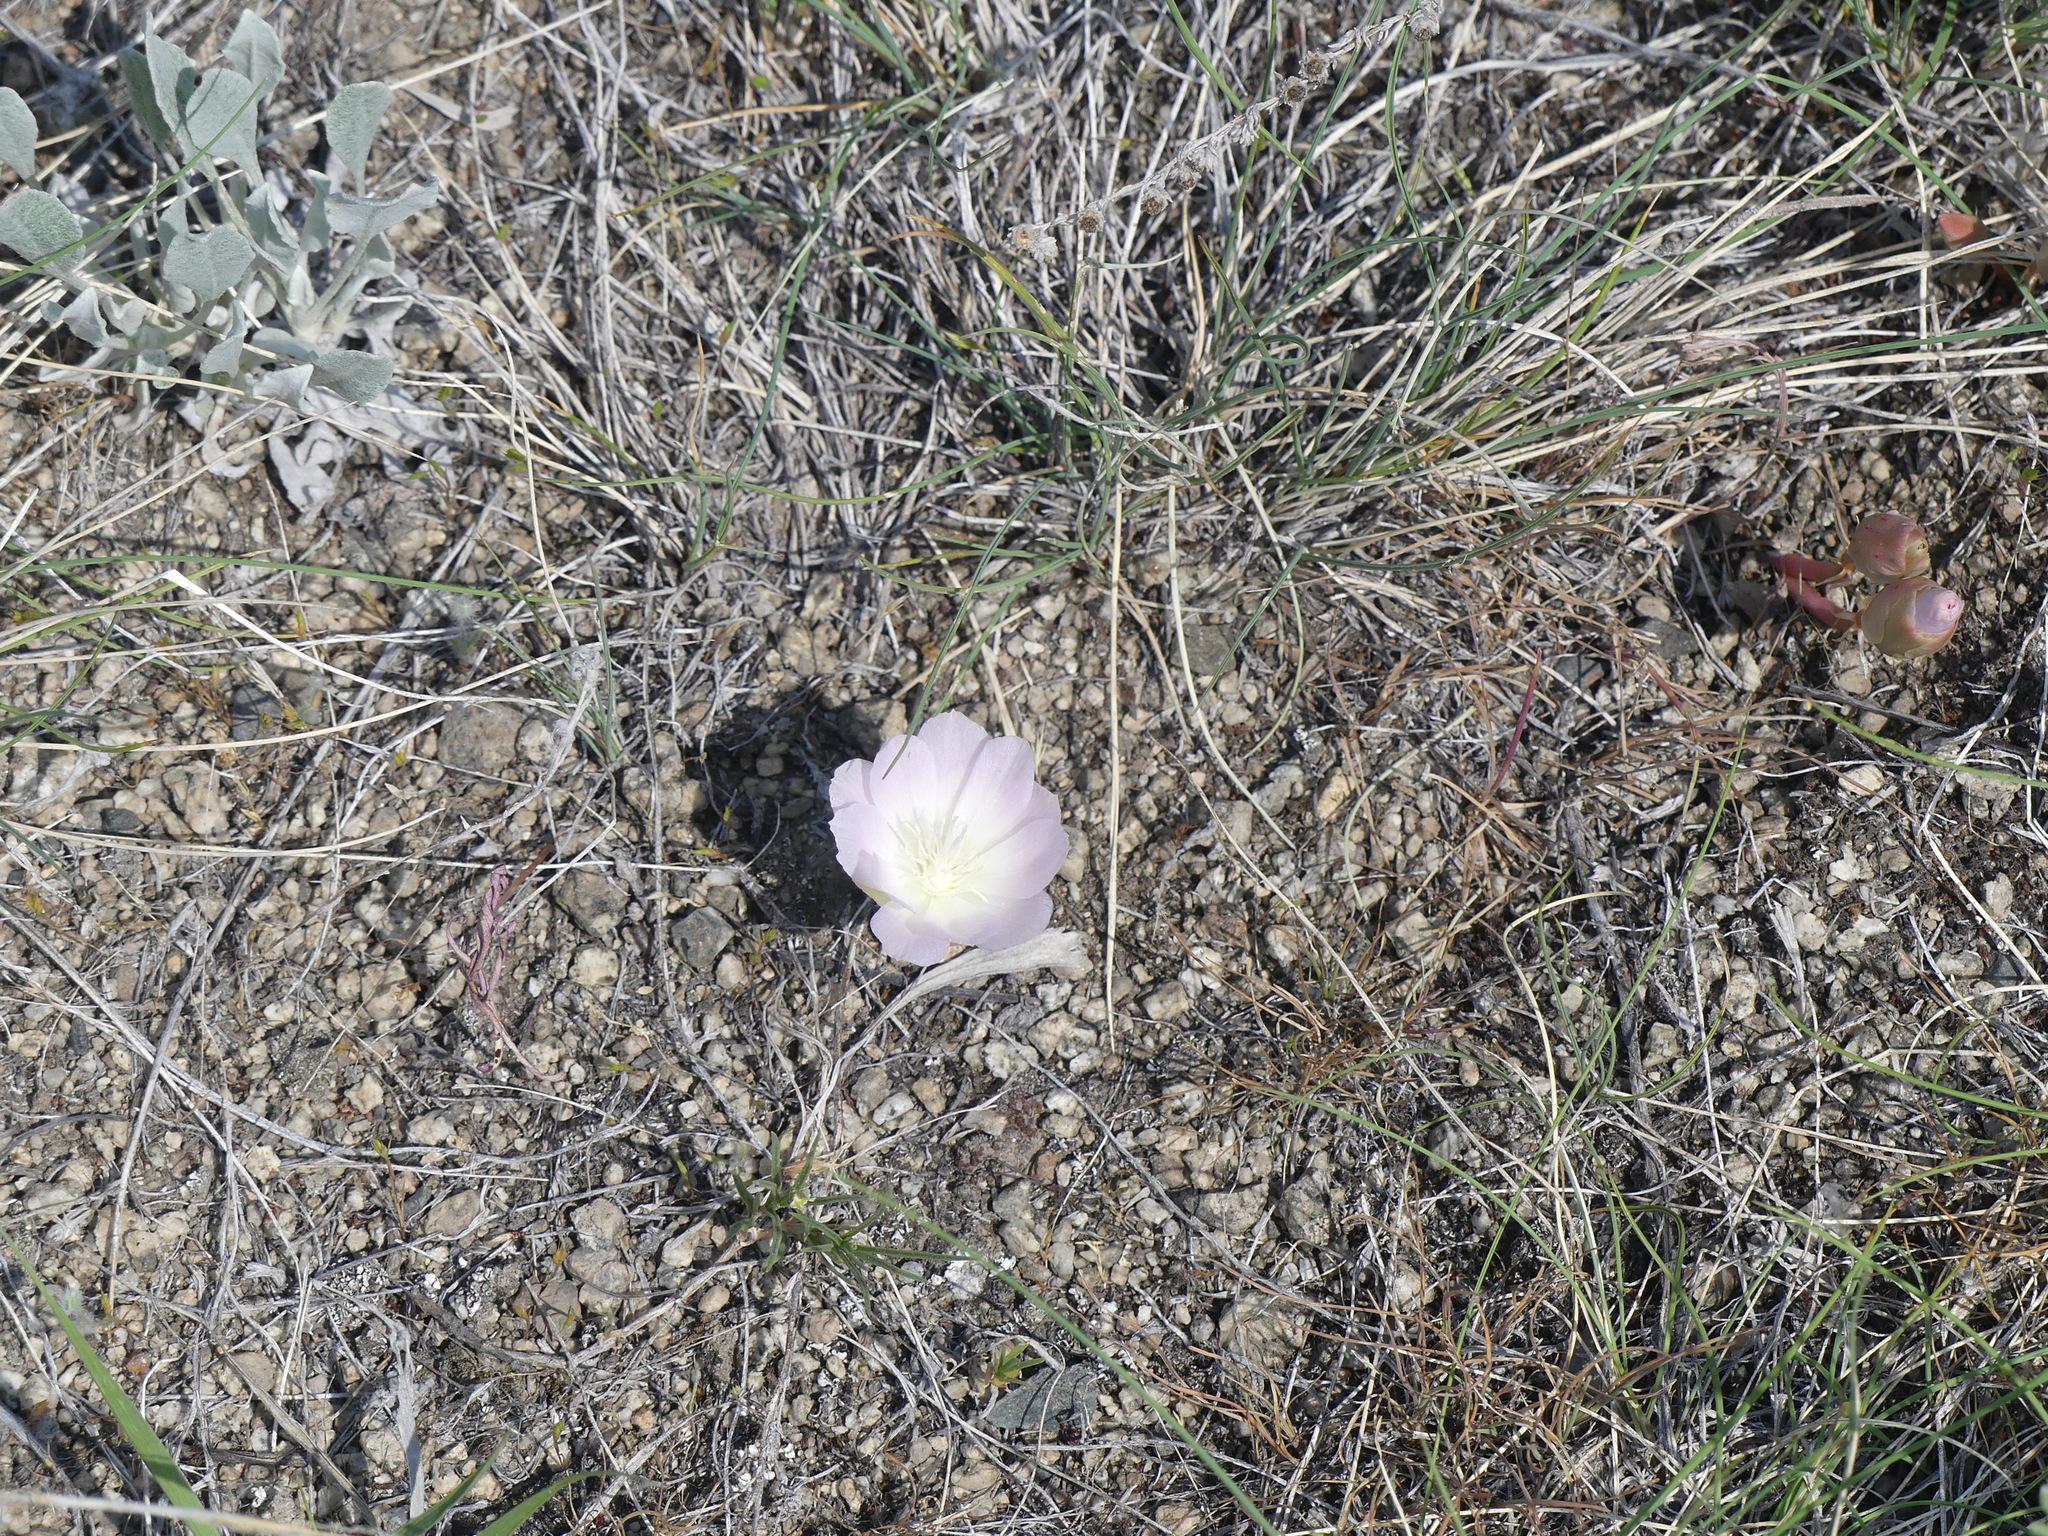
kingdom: Plantae
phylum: Tracheophyta
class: Magnoliopsida
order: Caryophyllales
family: Montiaceae
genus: Lewisia
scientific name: Lewisia rediviva
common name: Bitter-root
